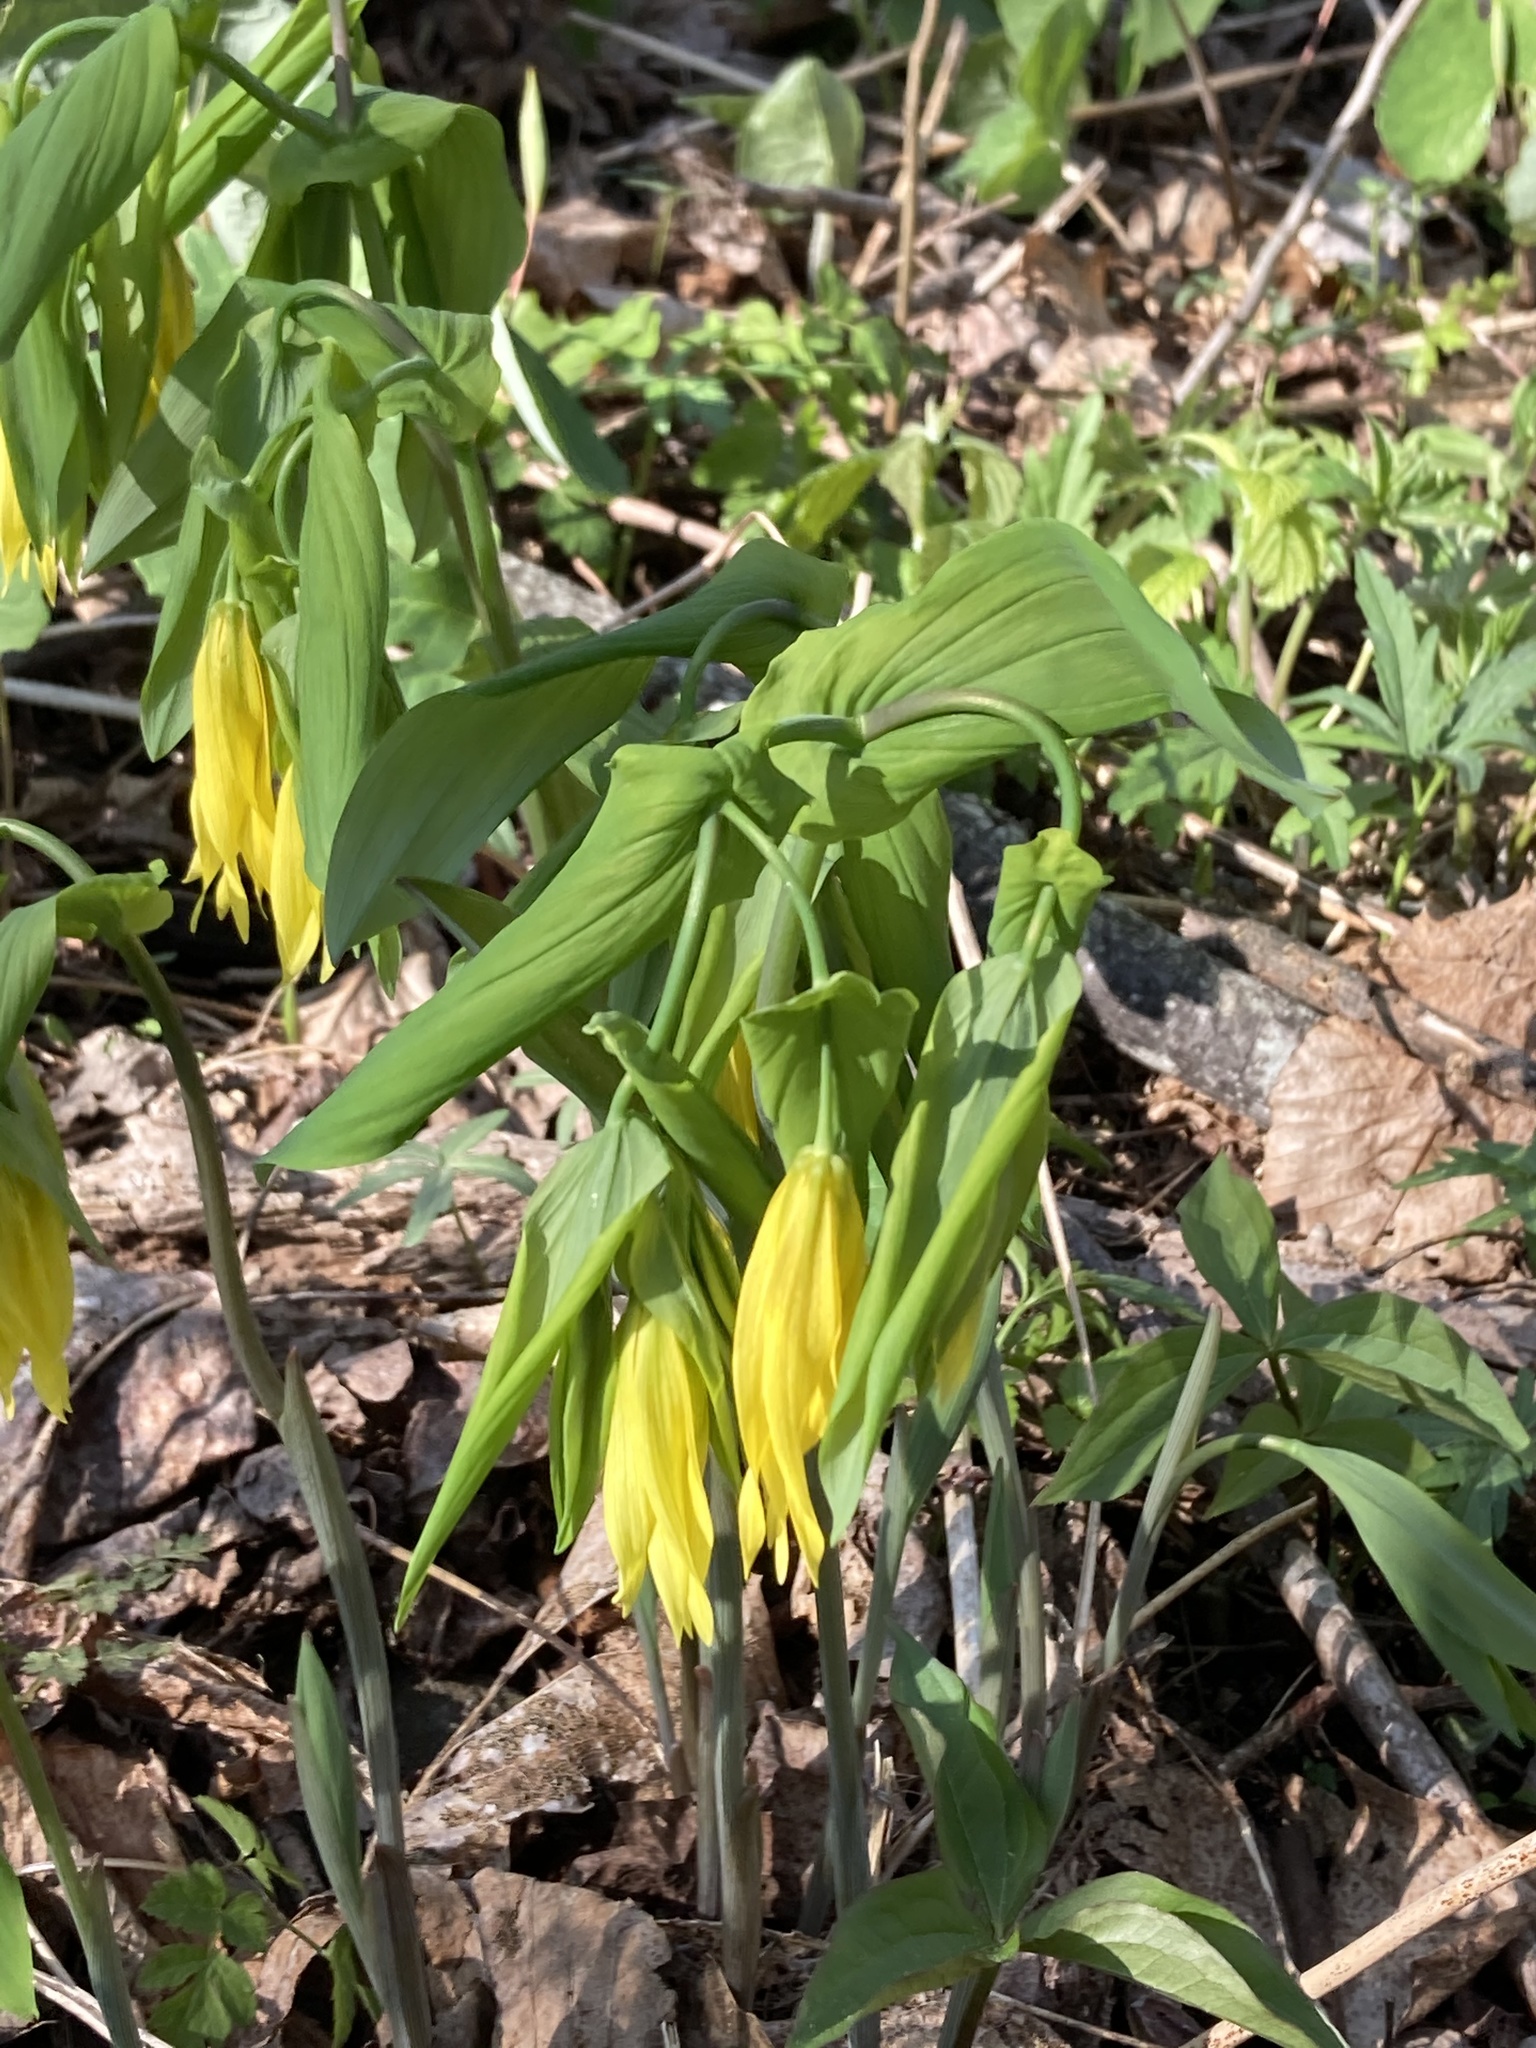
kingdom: Plantae
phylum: Tracheophyta
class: Liliopsida
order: Liliales
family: Colchicaceae
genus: Uvularia
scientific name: Uvularia grandiflora
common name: Bellwort
